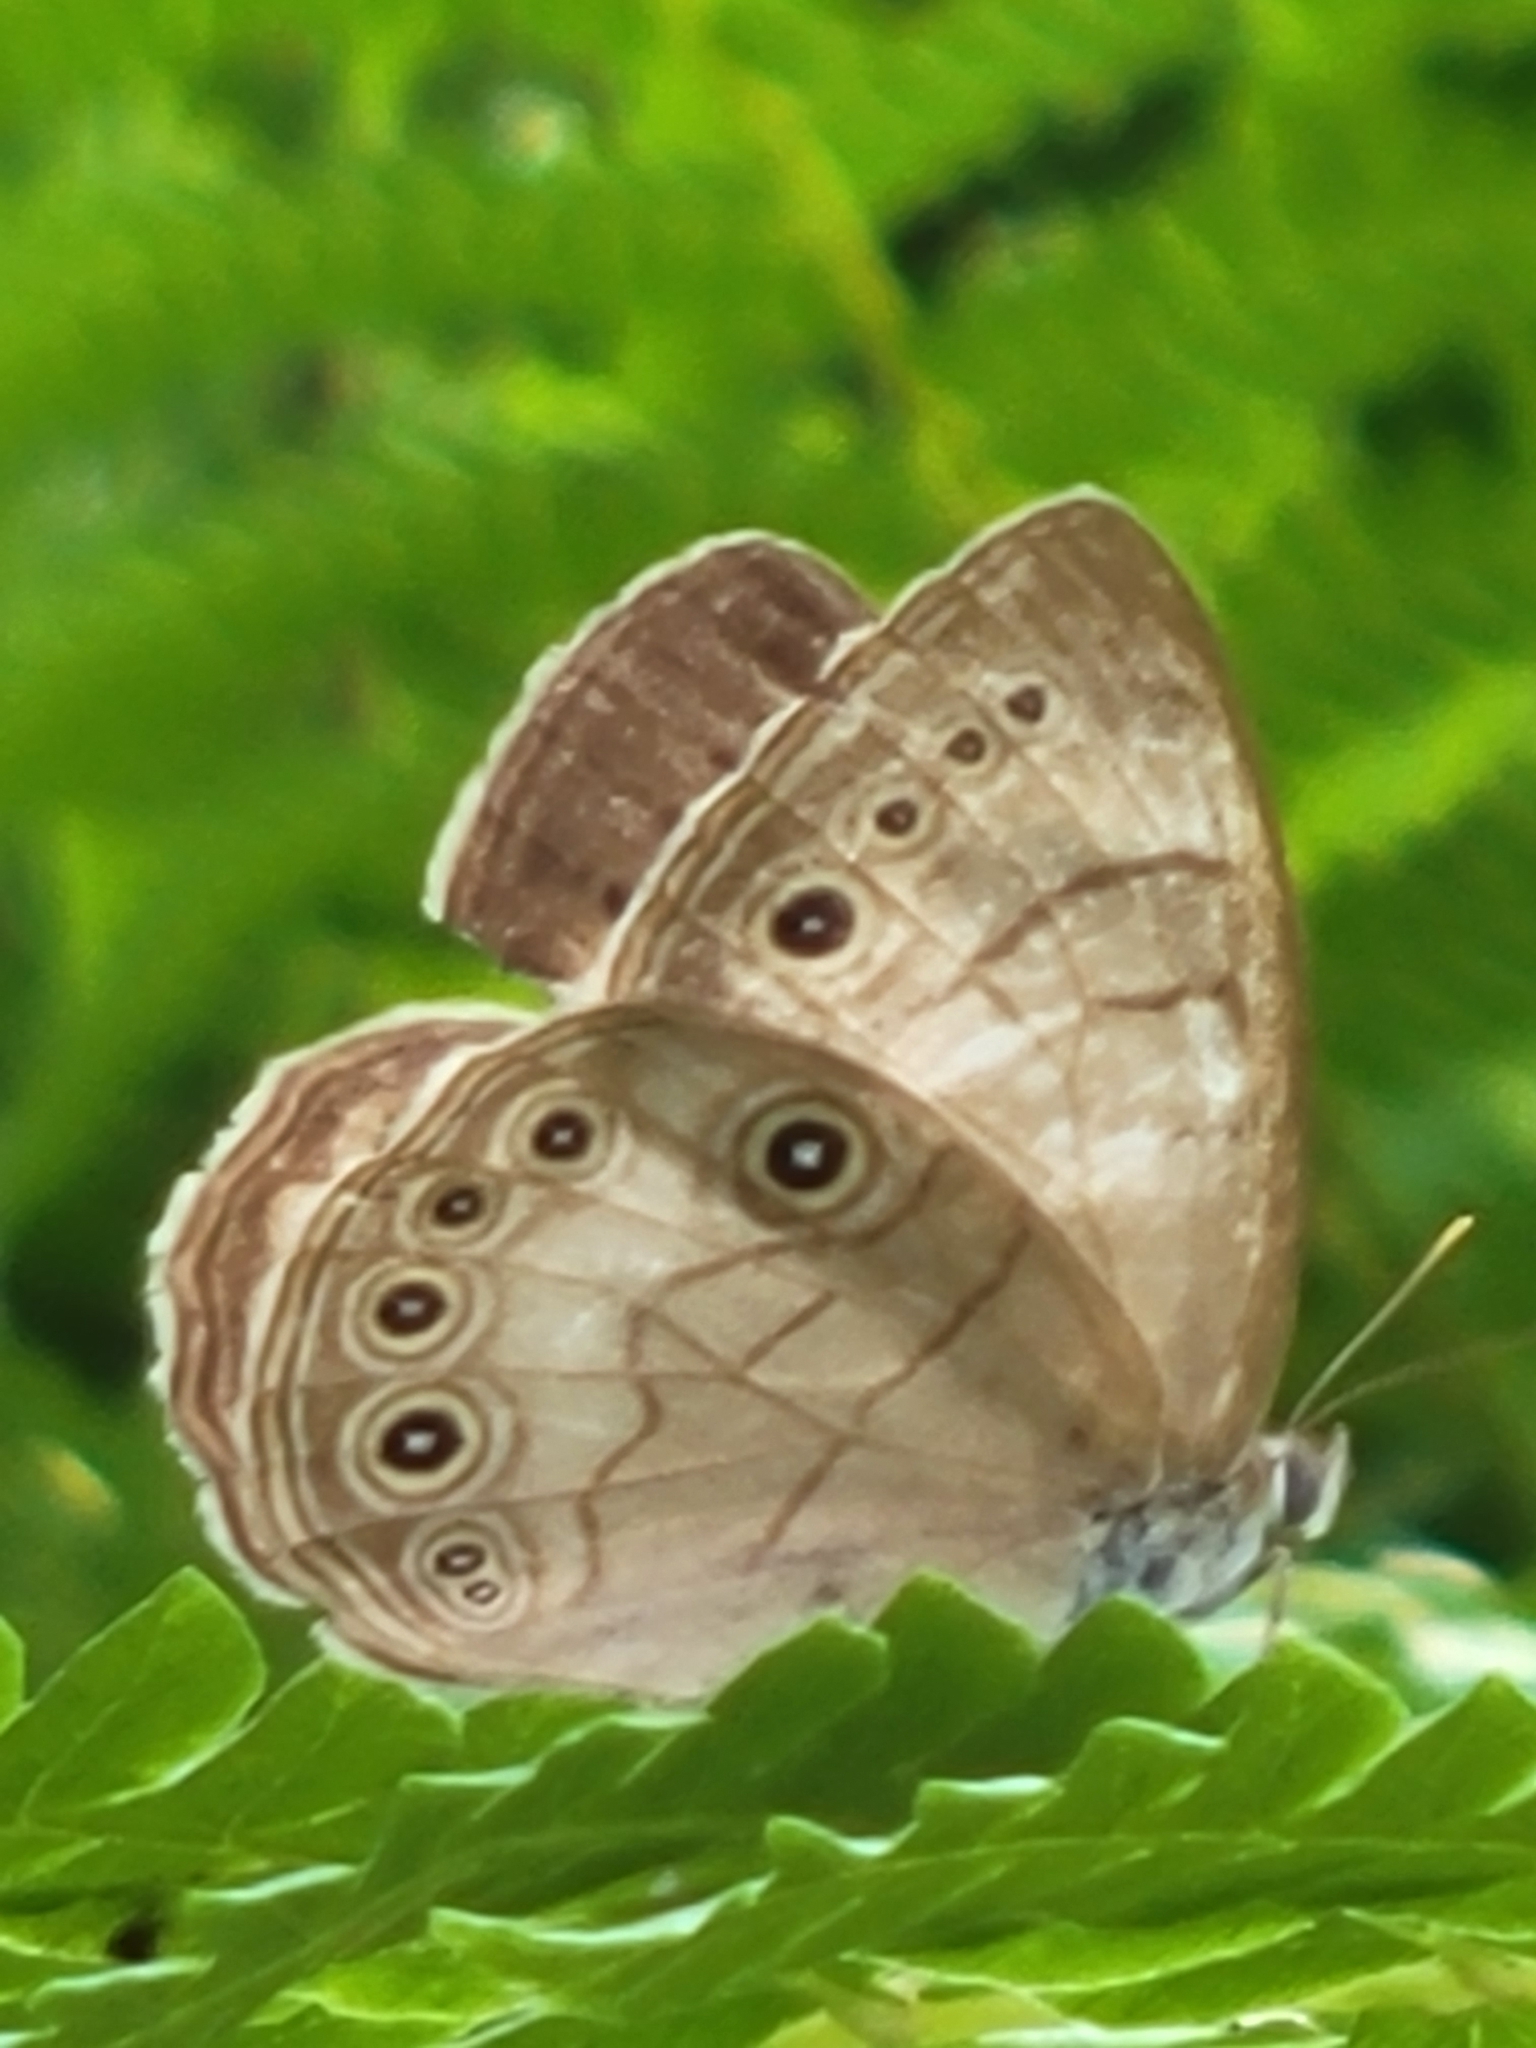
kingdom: Animalia
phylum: Arthropoda
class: Insecta
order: Lepidoptera
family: Nymphalidae
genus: Lethe
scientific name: Lethe eurydice
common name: Eyed brown
